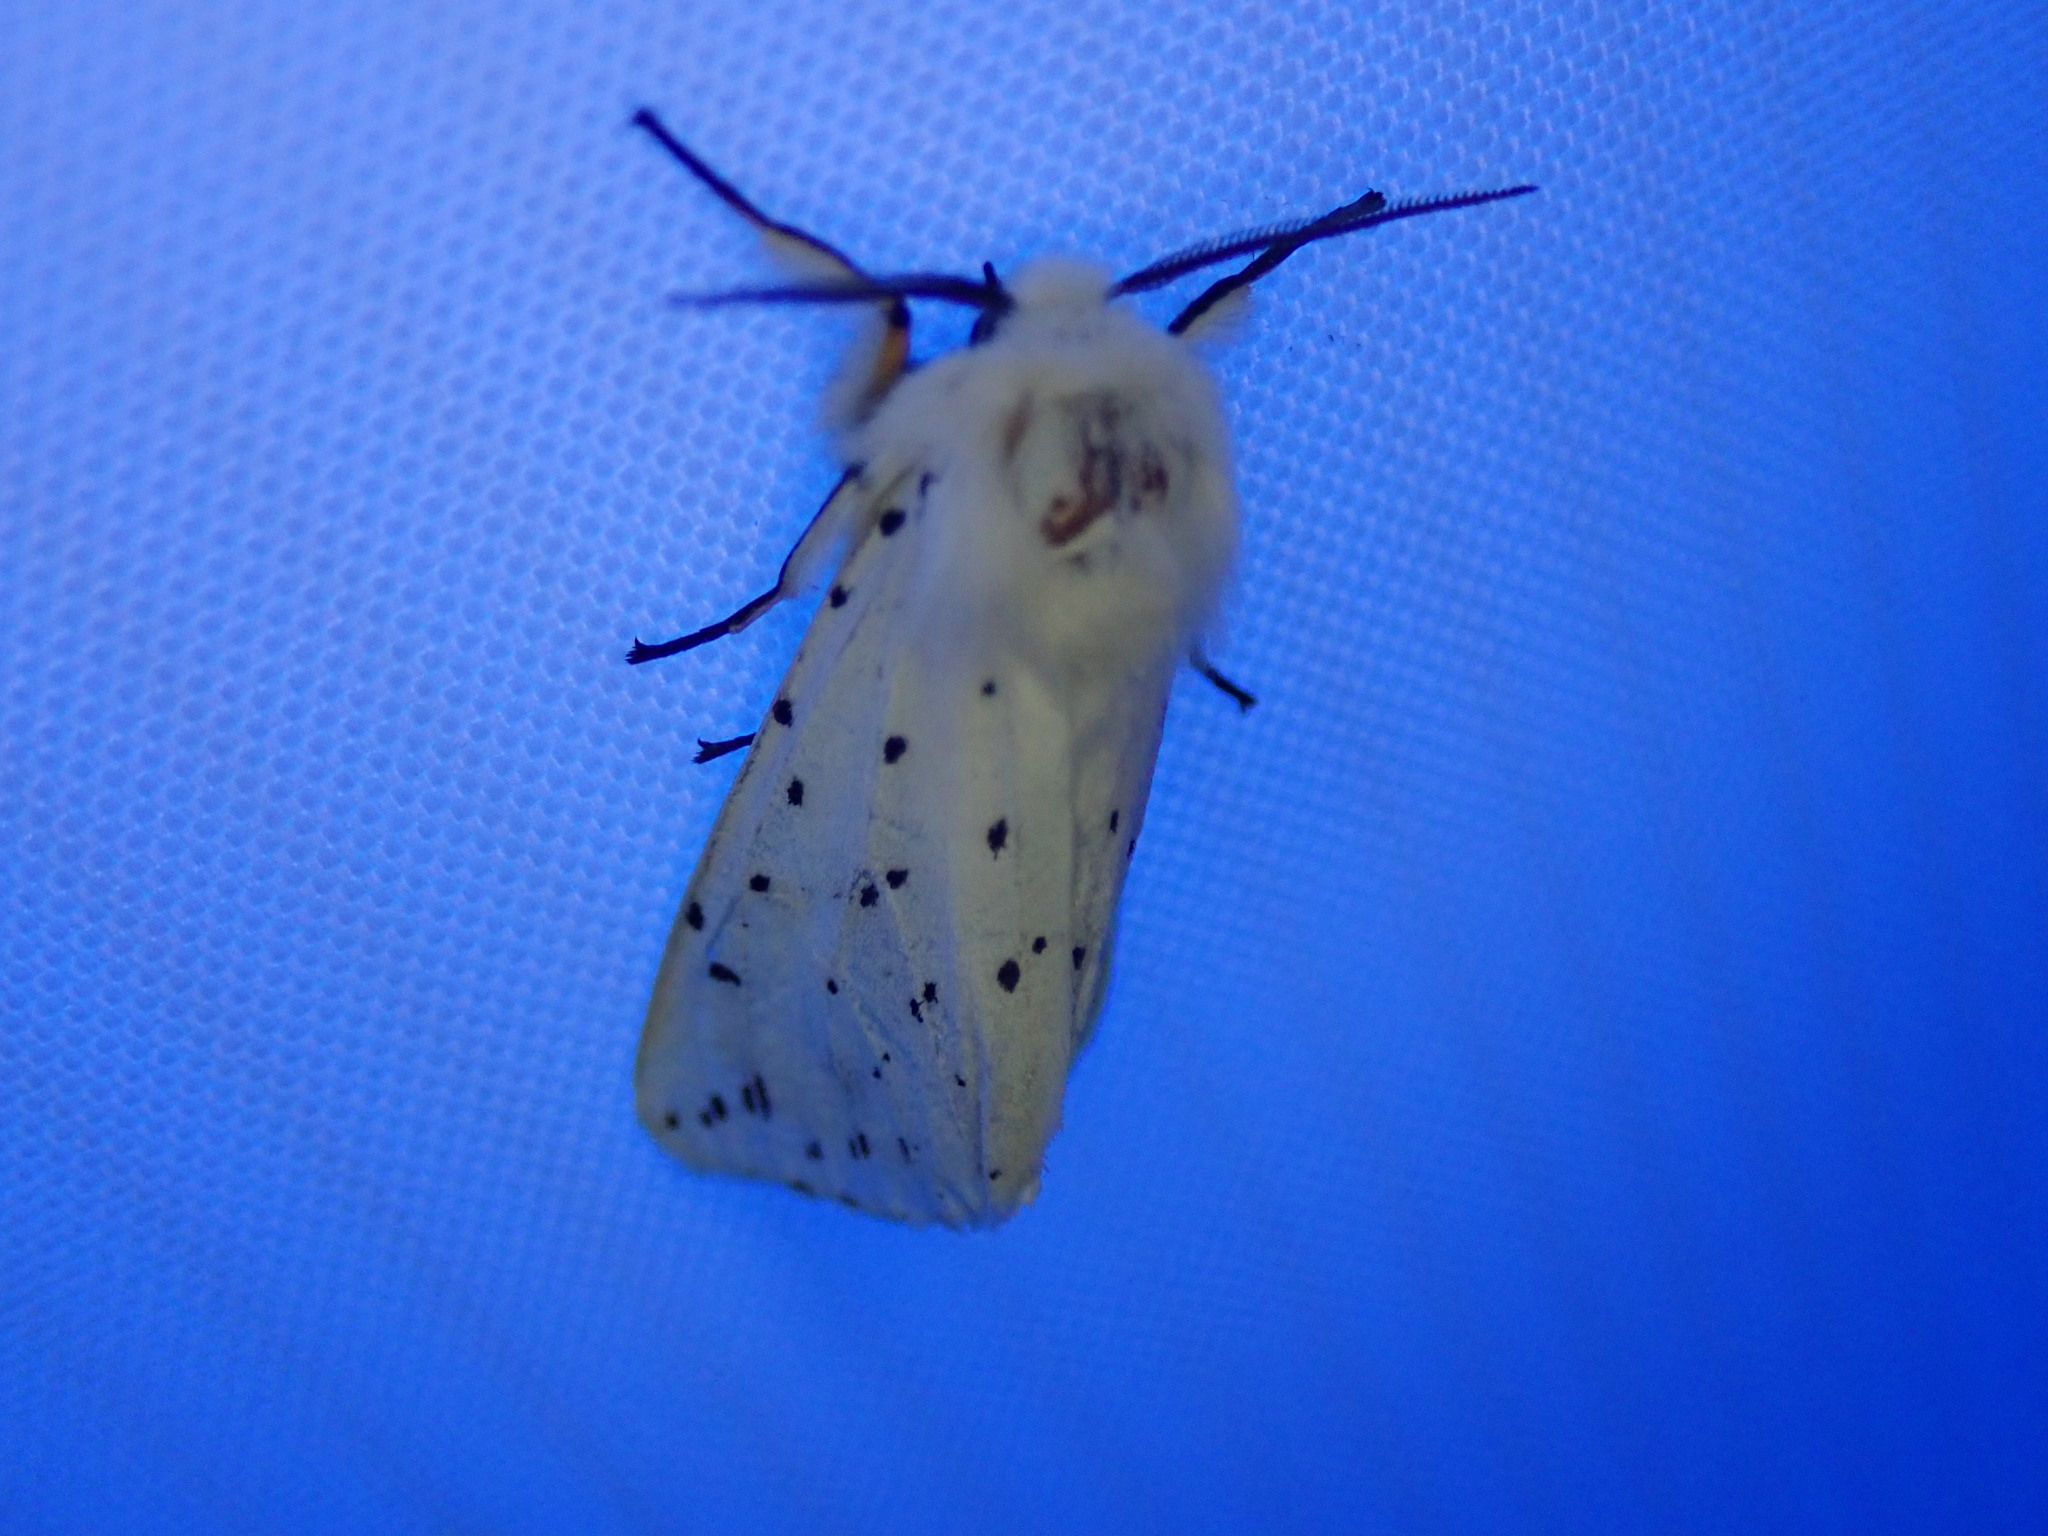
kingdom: Animalia
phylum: Arthropoda
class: Insecta
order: Lepidoptera
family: Erebidae
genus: Spilosoma
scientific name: Spilosoma lubricipeda
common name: White ermine
